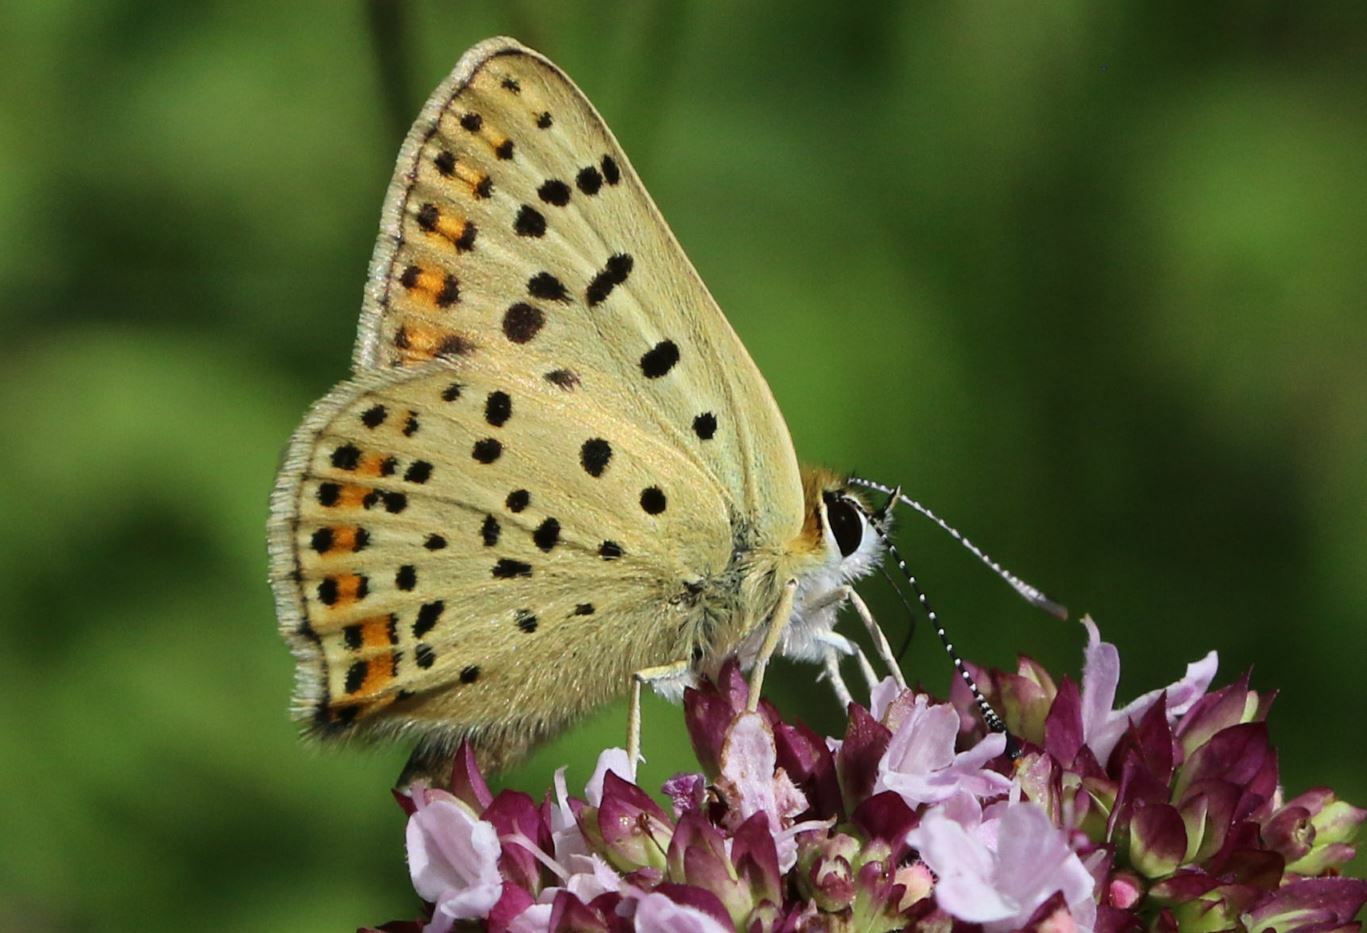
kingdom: Animalia
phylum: Arthropoda
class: Insecta
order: Lepidoptera
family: Lycaenidae
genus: Loweia
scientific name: Loweia tityrus
